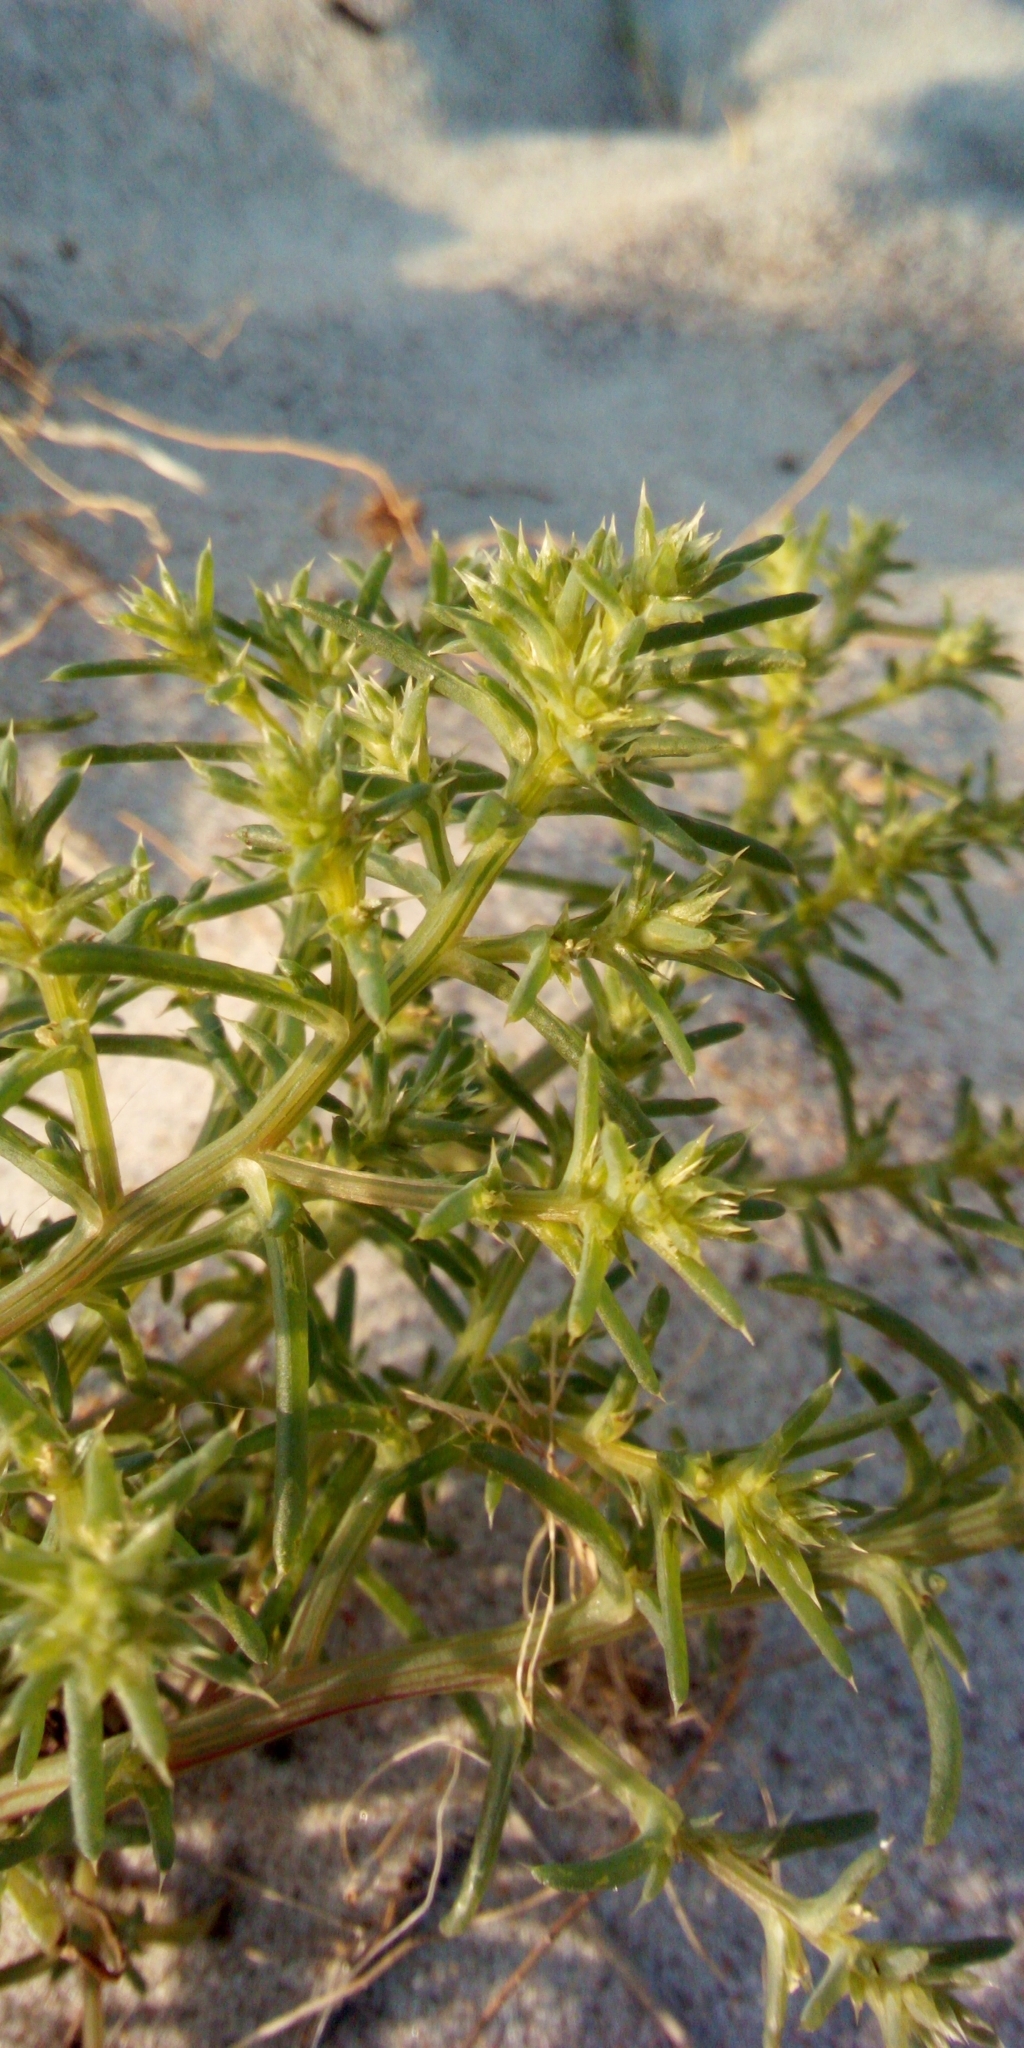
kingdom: Plantae
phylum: Tracheophyta
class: Magnoliopsida
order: Caryophyllales
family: Amaranthaceae
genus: Salsola
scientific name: Salsola kali
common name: Saltwort
